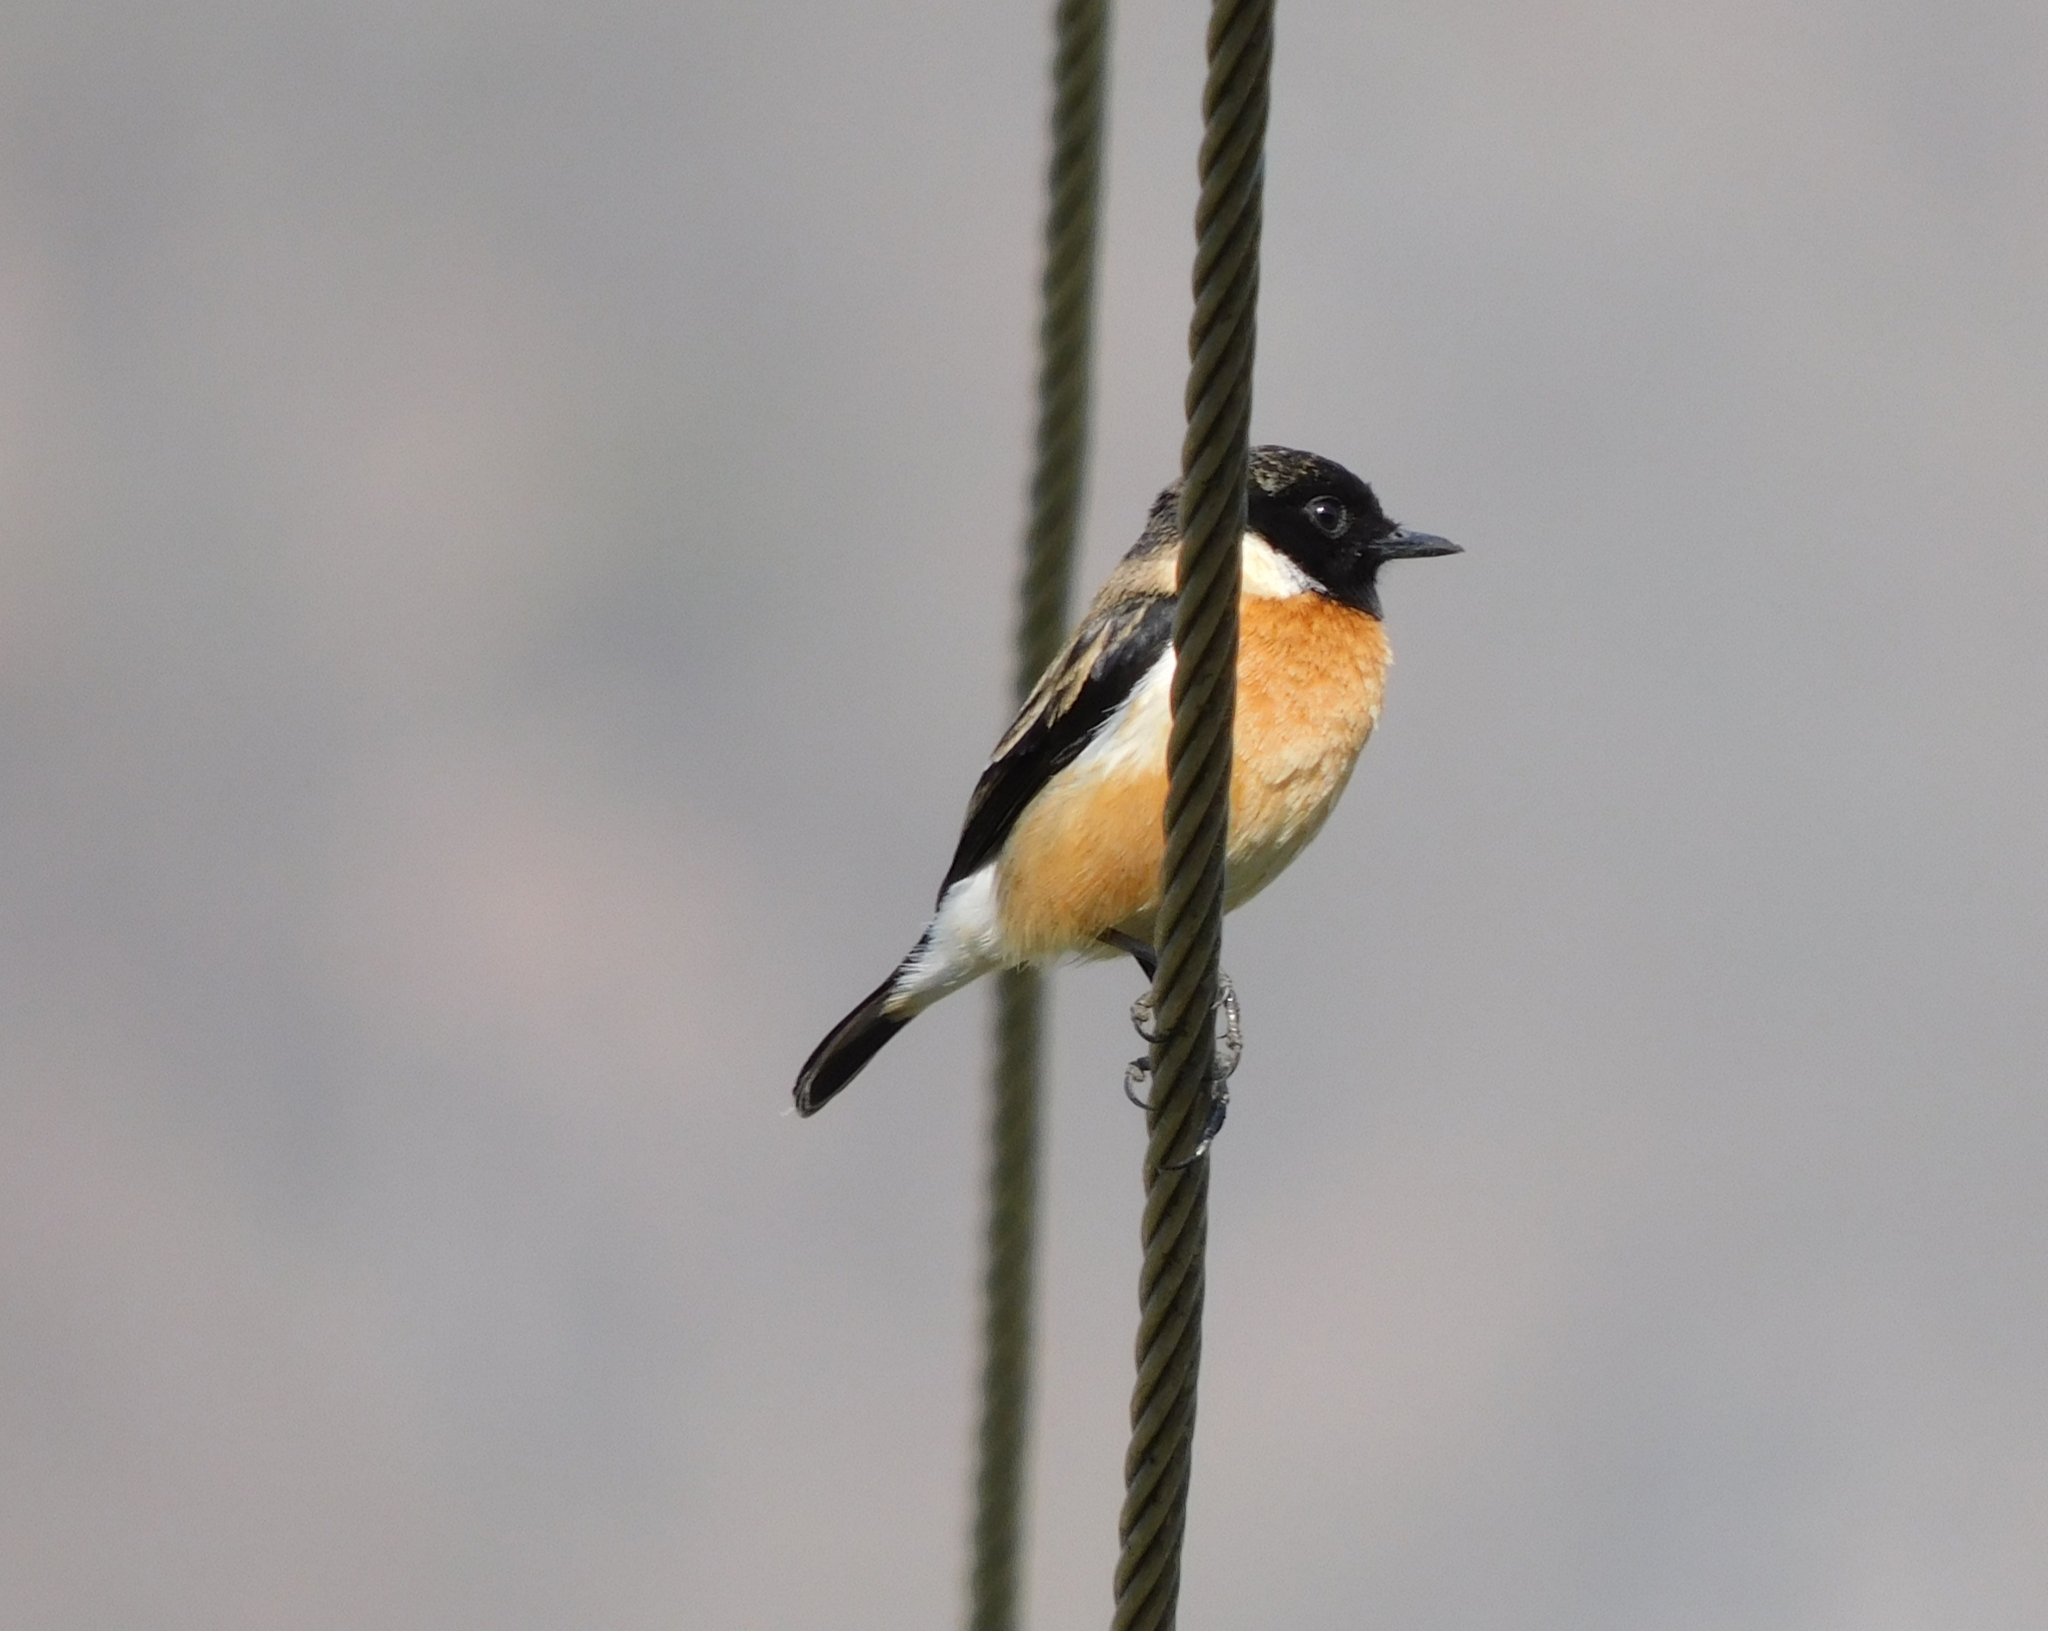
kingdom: Animalia
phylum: Chordata
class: Aves
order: Passeriformes
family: Muscicapidae
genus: Saxicola
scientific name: Saxicola maurus
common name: Siberian stonechat
